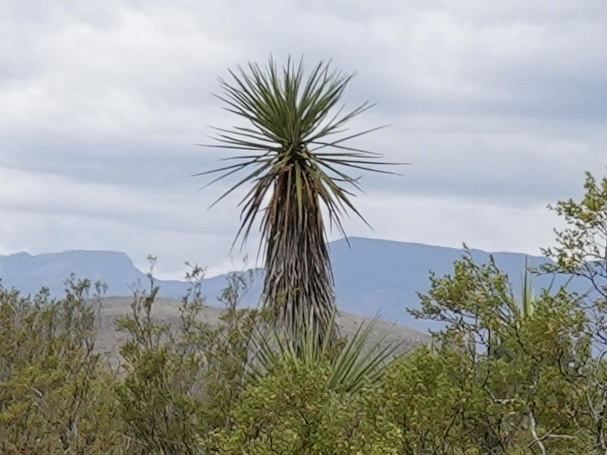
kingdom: Plantae
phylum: Tracheophyta
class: Liliopsida
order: Asparagales
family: Asparagaceae
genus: Yucca
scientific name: Yucca treculiana
